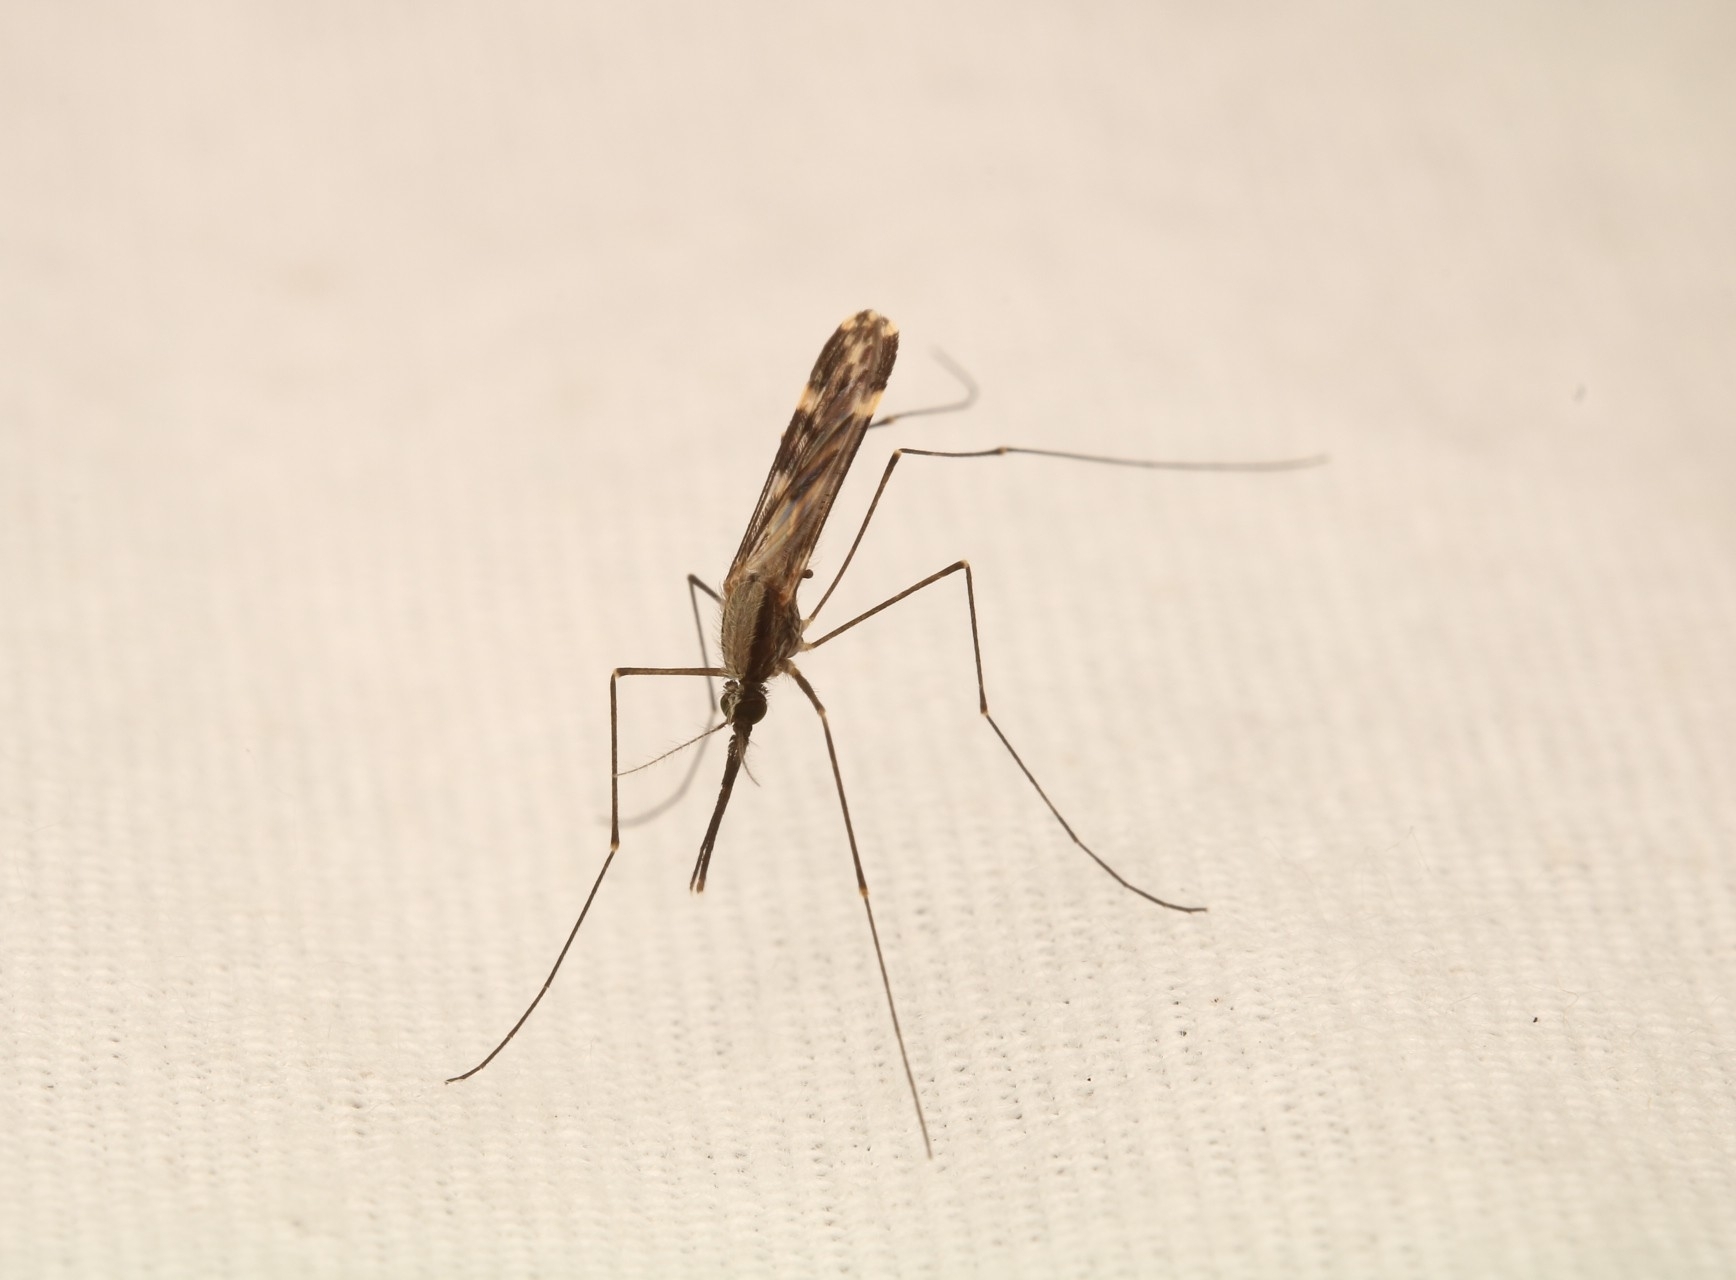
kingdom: Animalia
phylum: Arthropoda
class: Insecta
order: Diptera
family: Culicidae
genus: Anopheles
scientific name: Anopheles punctipennis
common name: Woodland malaria mosquito
